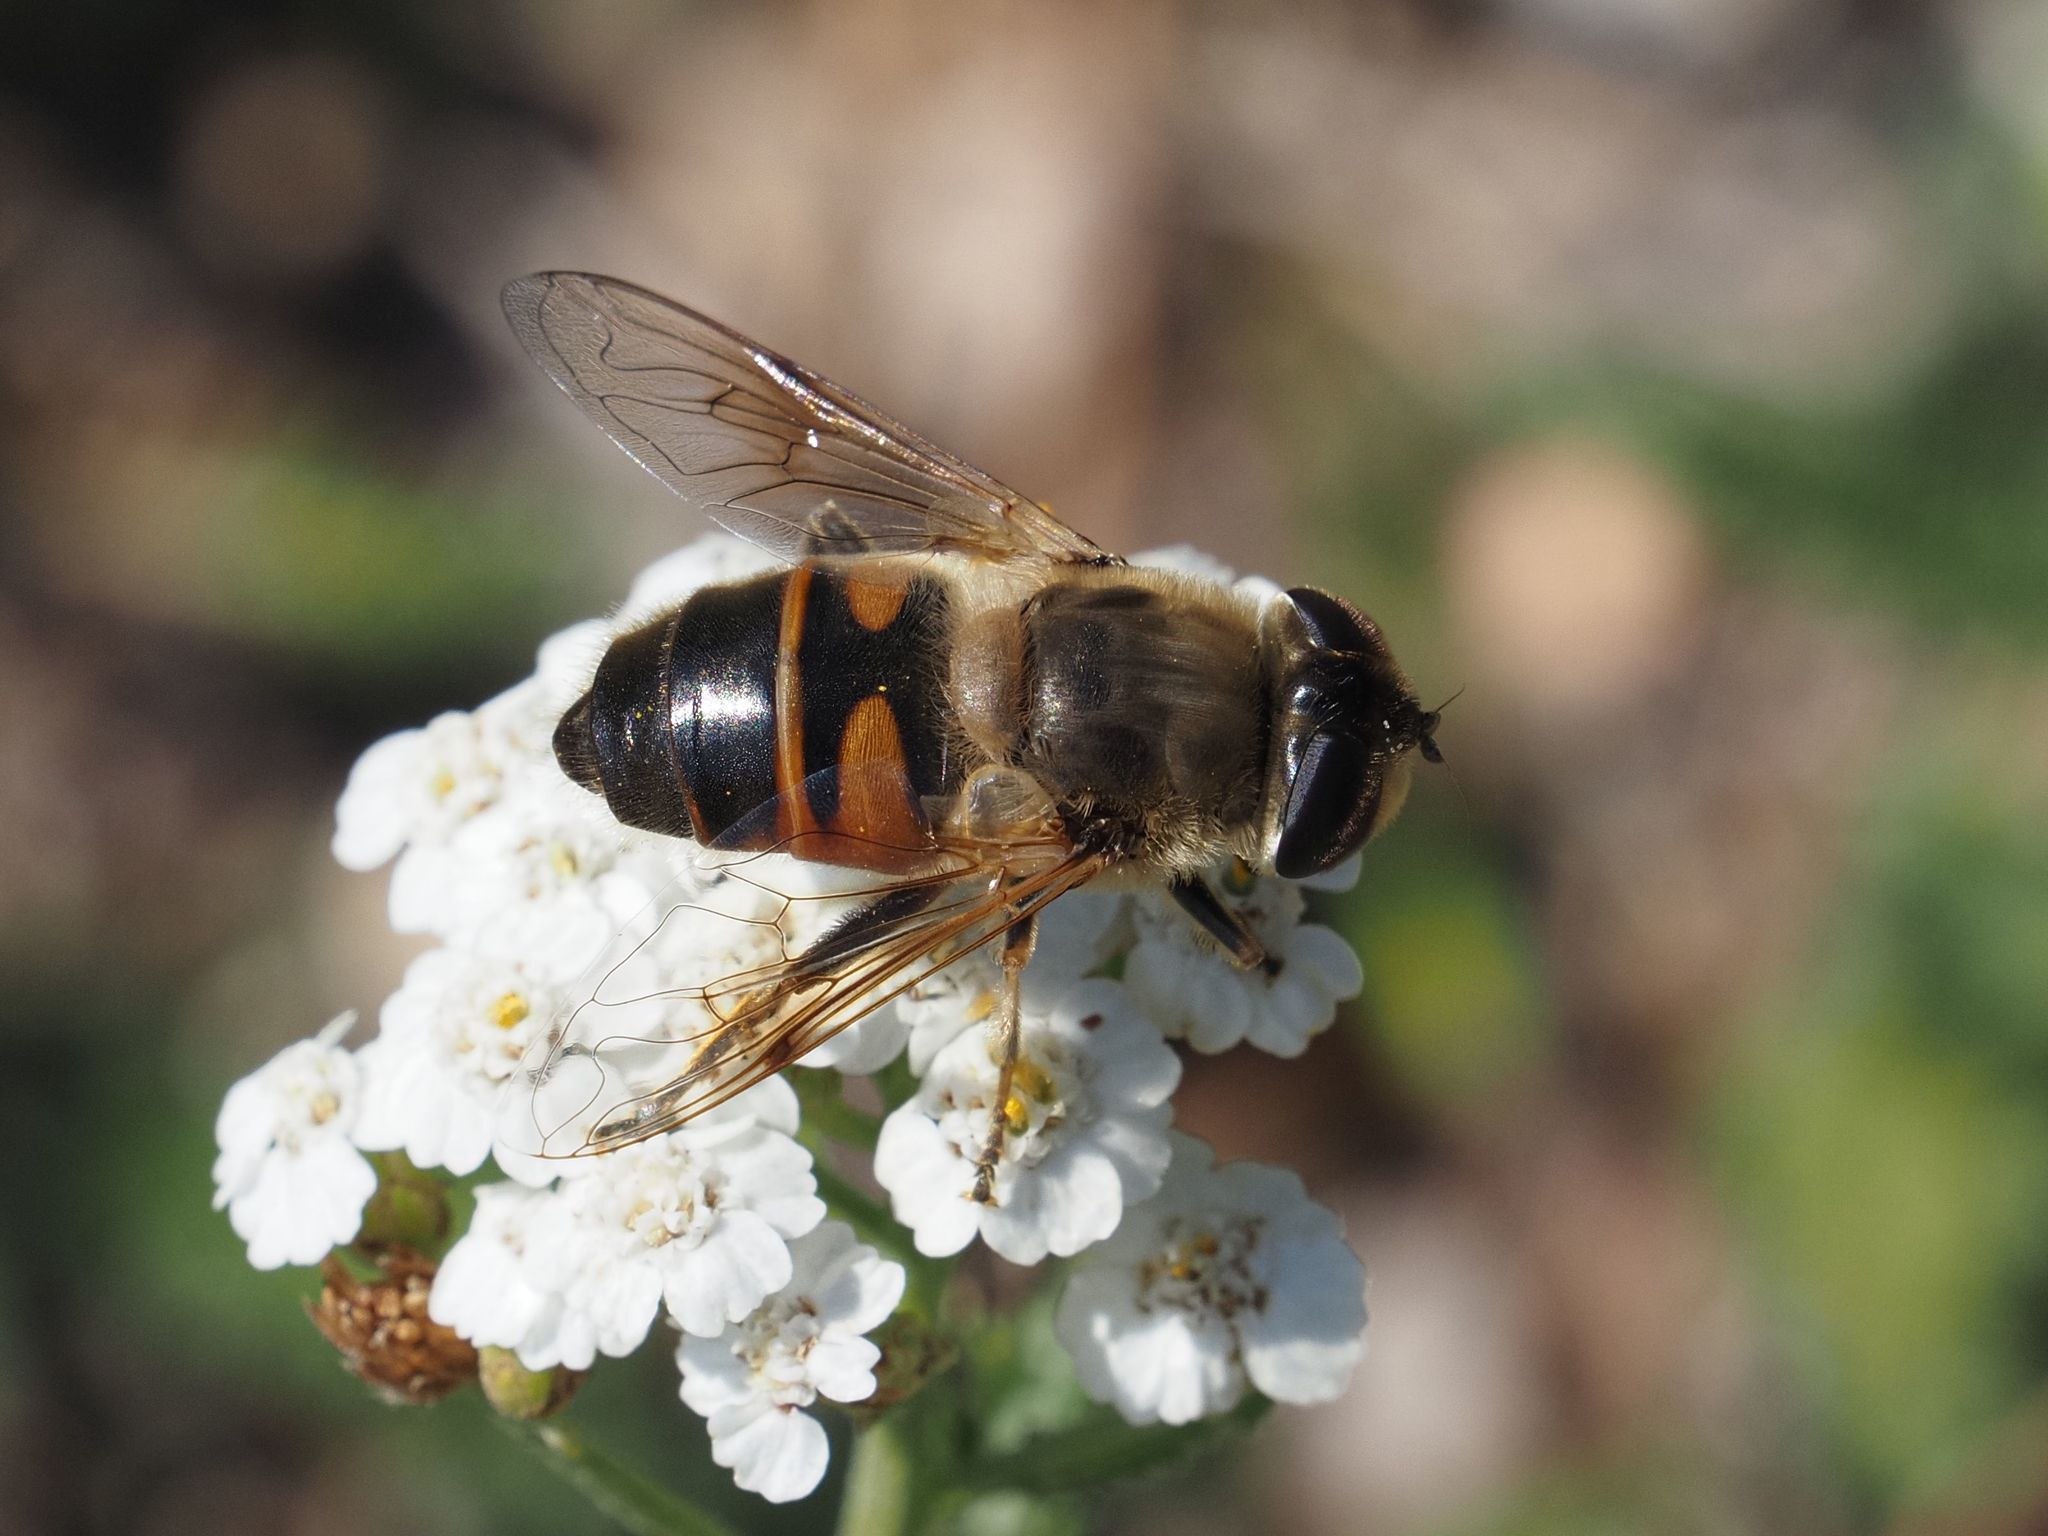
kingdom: Animalia
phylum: Arthropoda
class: Insecta
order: Diptera
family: Syrphidae
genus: Eristalis
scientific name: Eristalis tenax
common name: Drone fly
